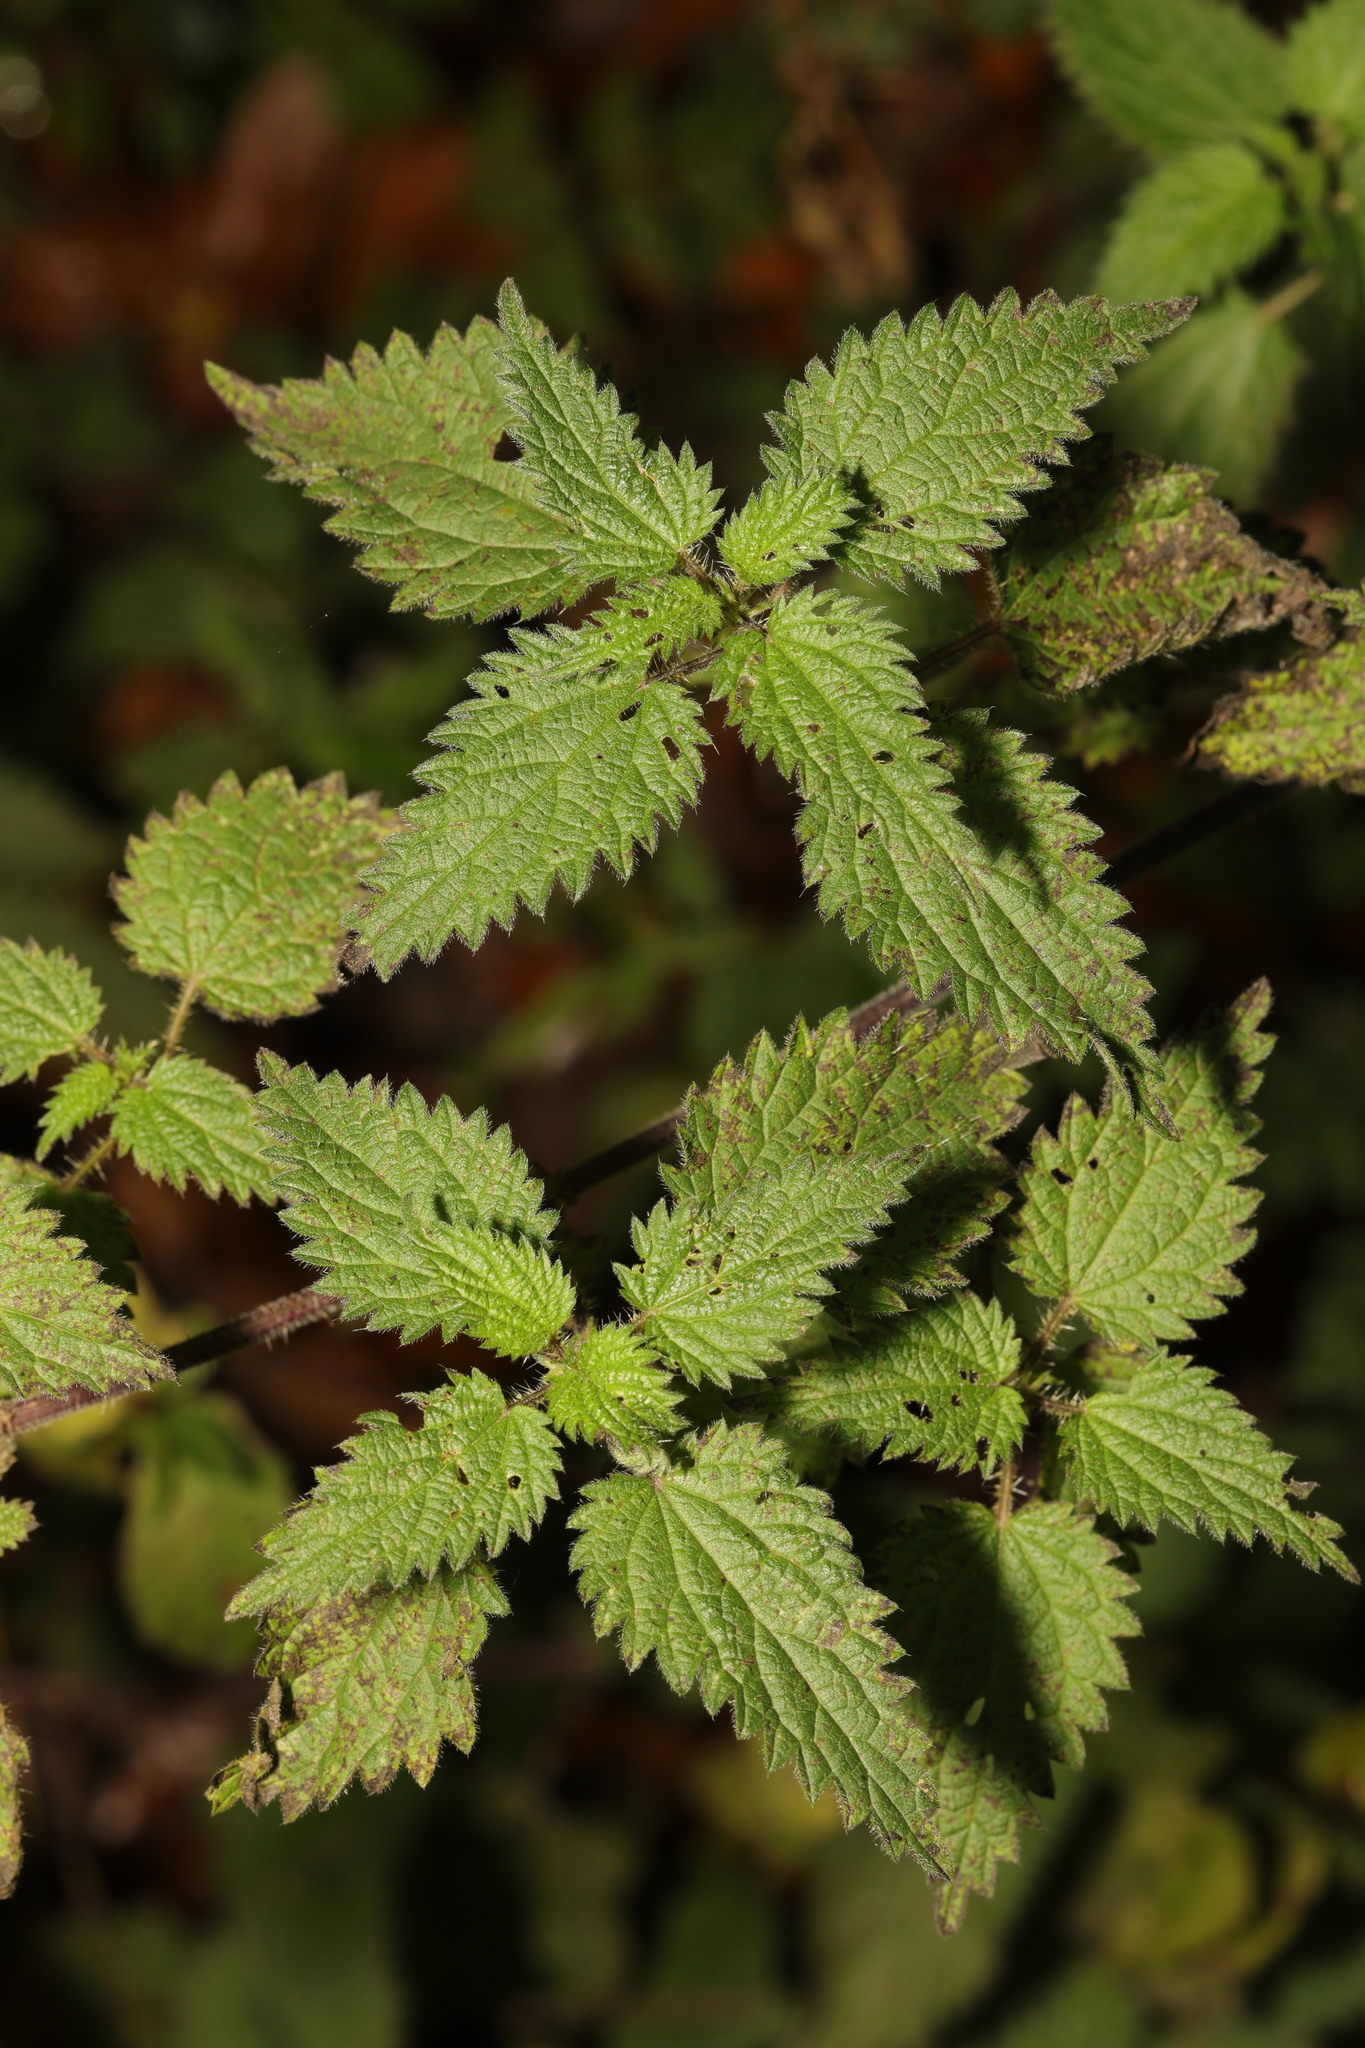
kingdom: Plantae
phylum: Tracheophyta
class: Magnoliopsida
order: Rosales
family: Urticaceae
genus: Urtica
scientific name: Urtica dioica
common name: Common nettle
